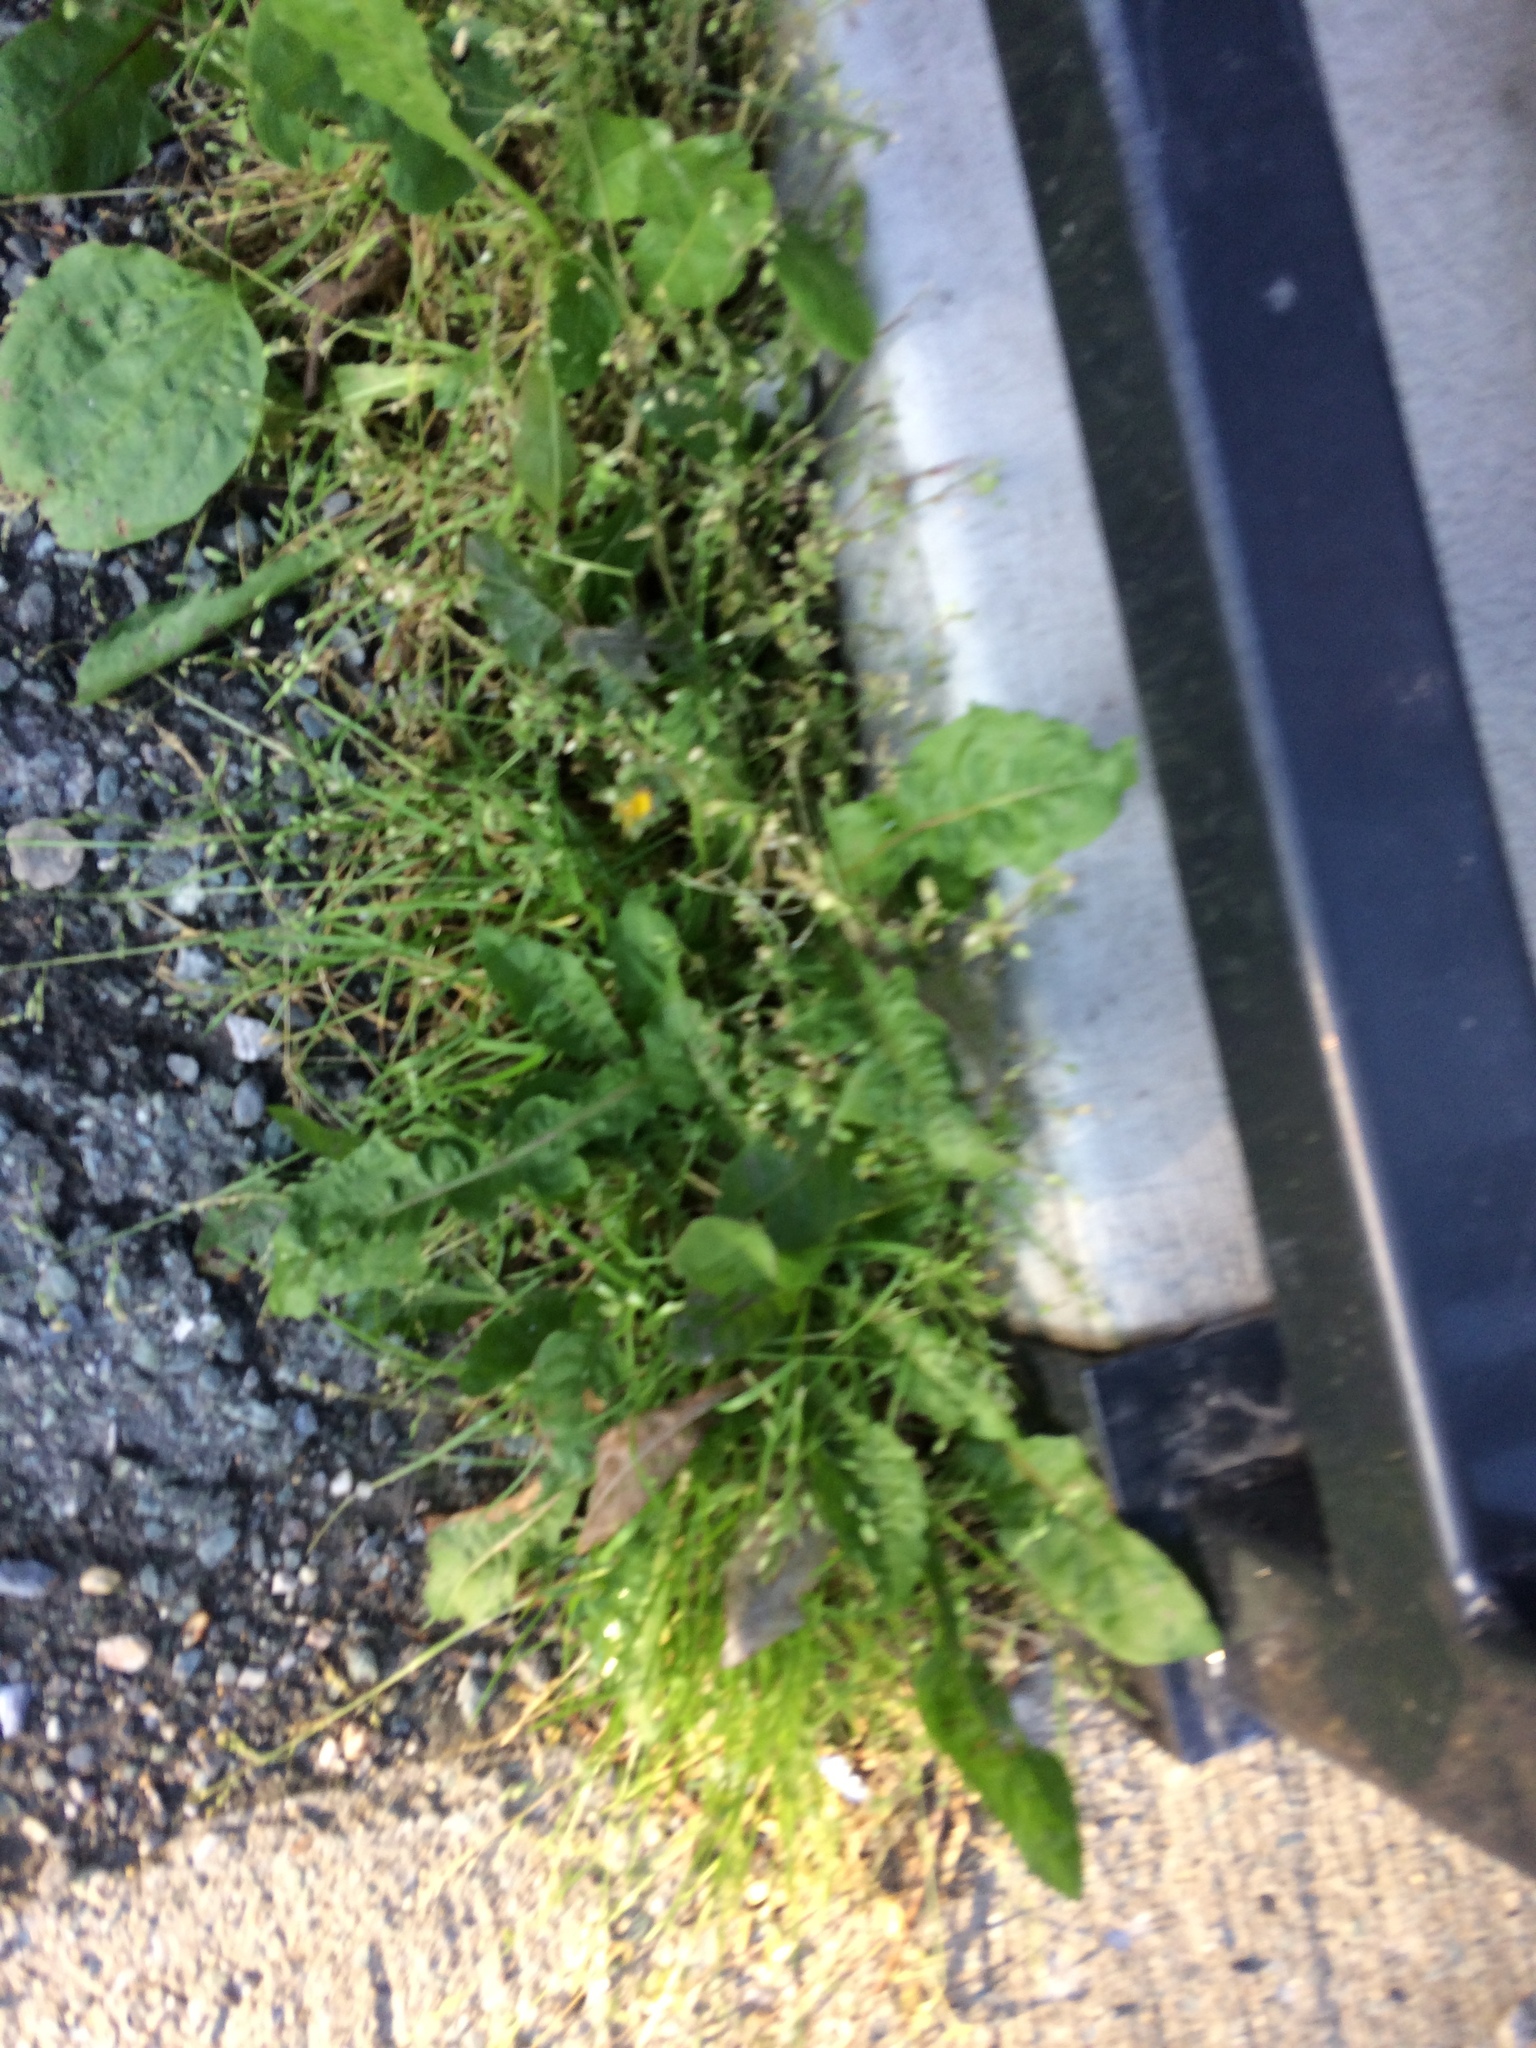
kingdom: Plantae
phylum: Tracheophyta
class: Magnoliopsida
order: Asterales
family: Asteraceae
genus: Taraxacum
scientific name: Taraxacum officinale
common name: Common dandelion
